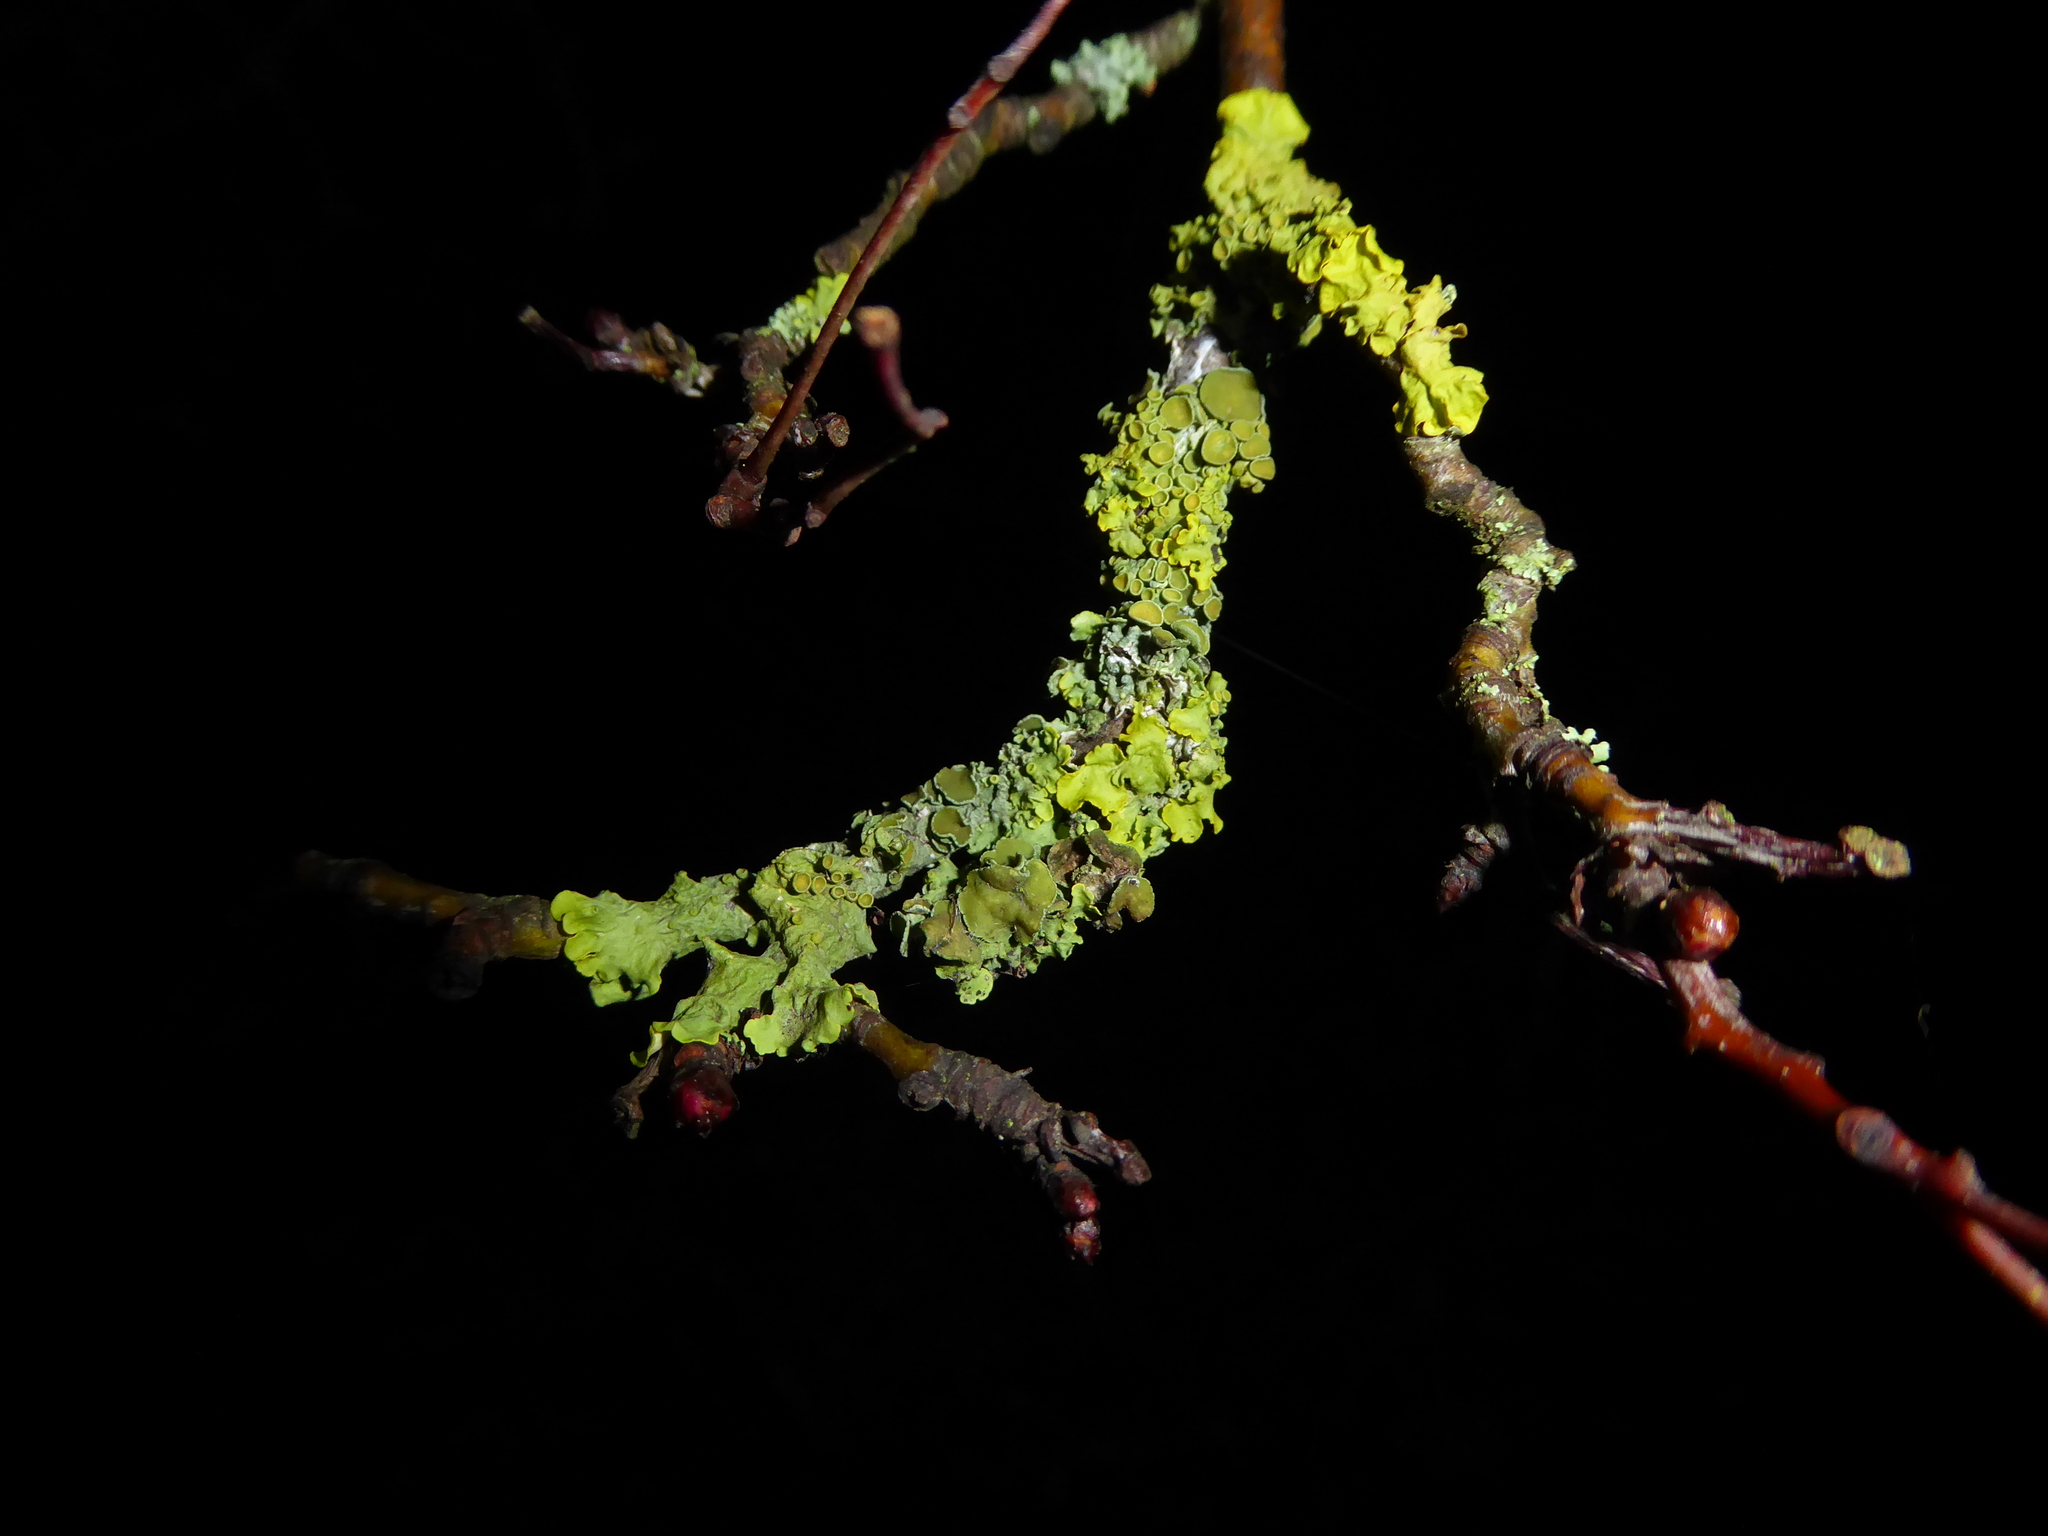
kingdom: Fungi
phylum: Ascomycota
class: Lecanoromycetes
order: Teloschistales
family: Teloschistaceae
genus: Xanthoria
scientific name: Xanthoria parietina
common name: Common orange lichen
